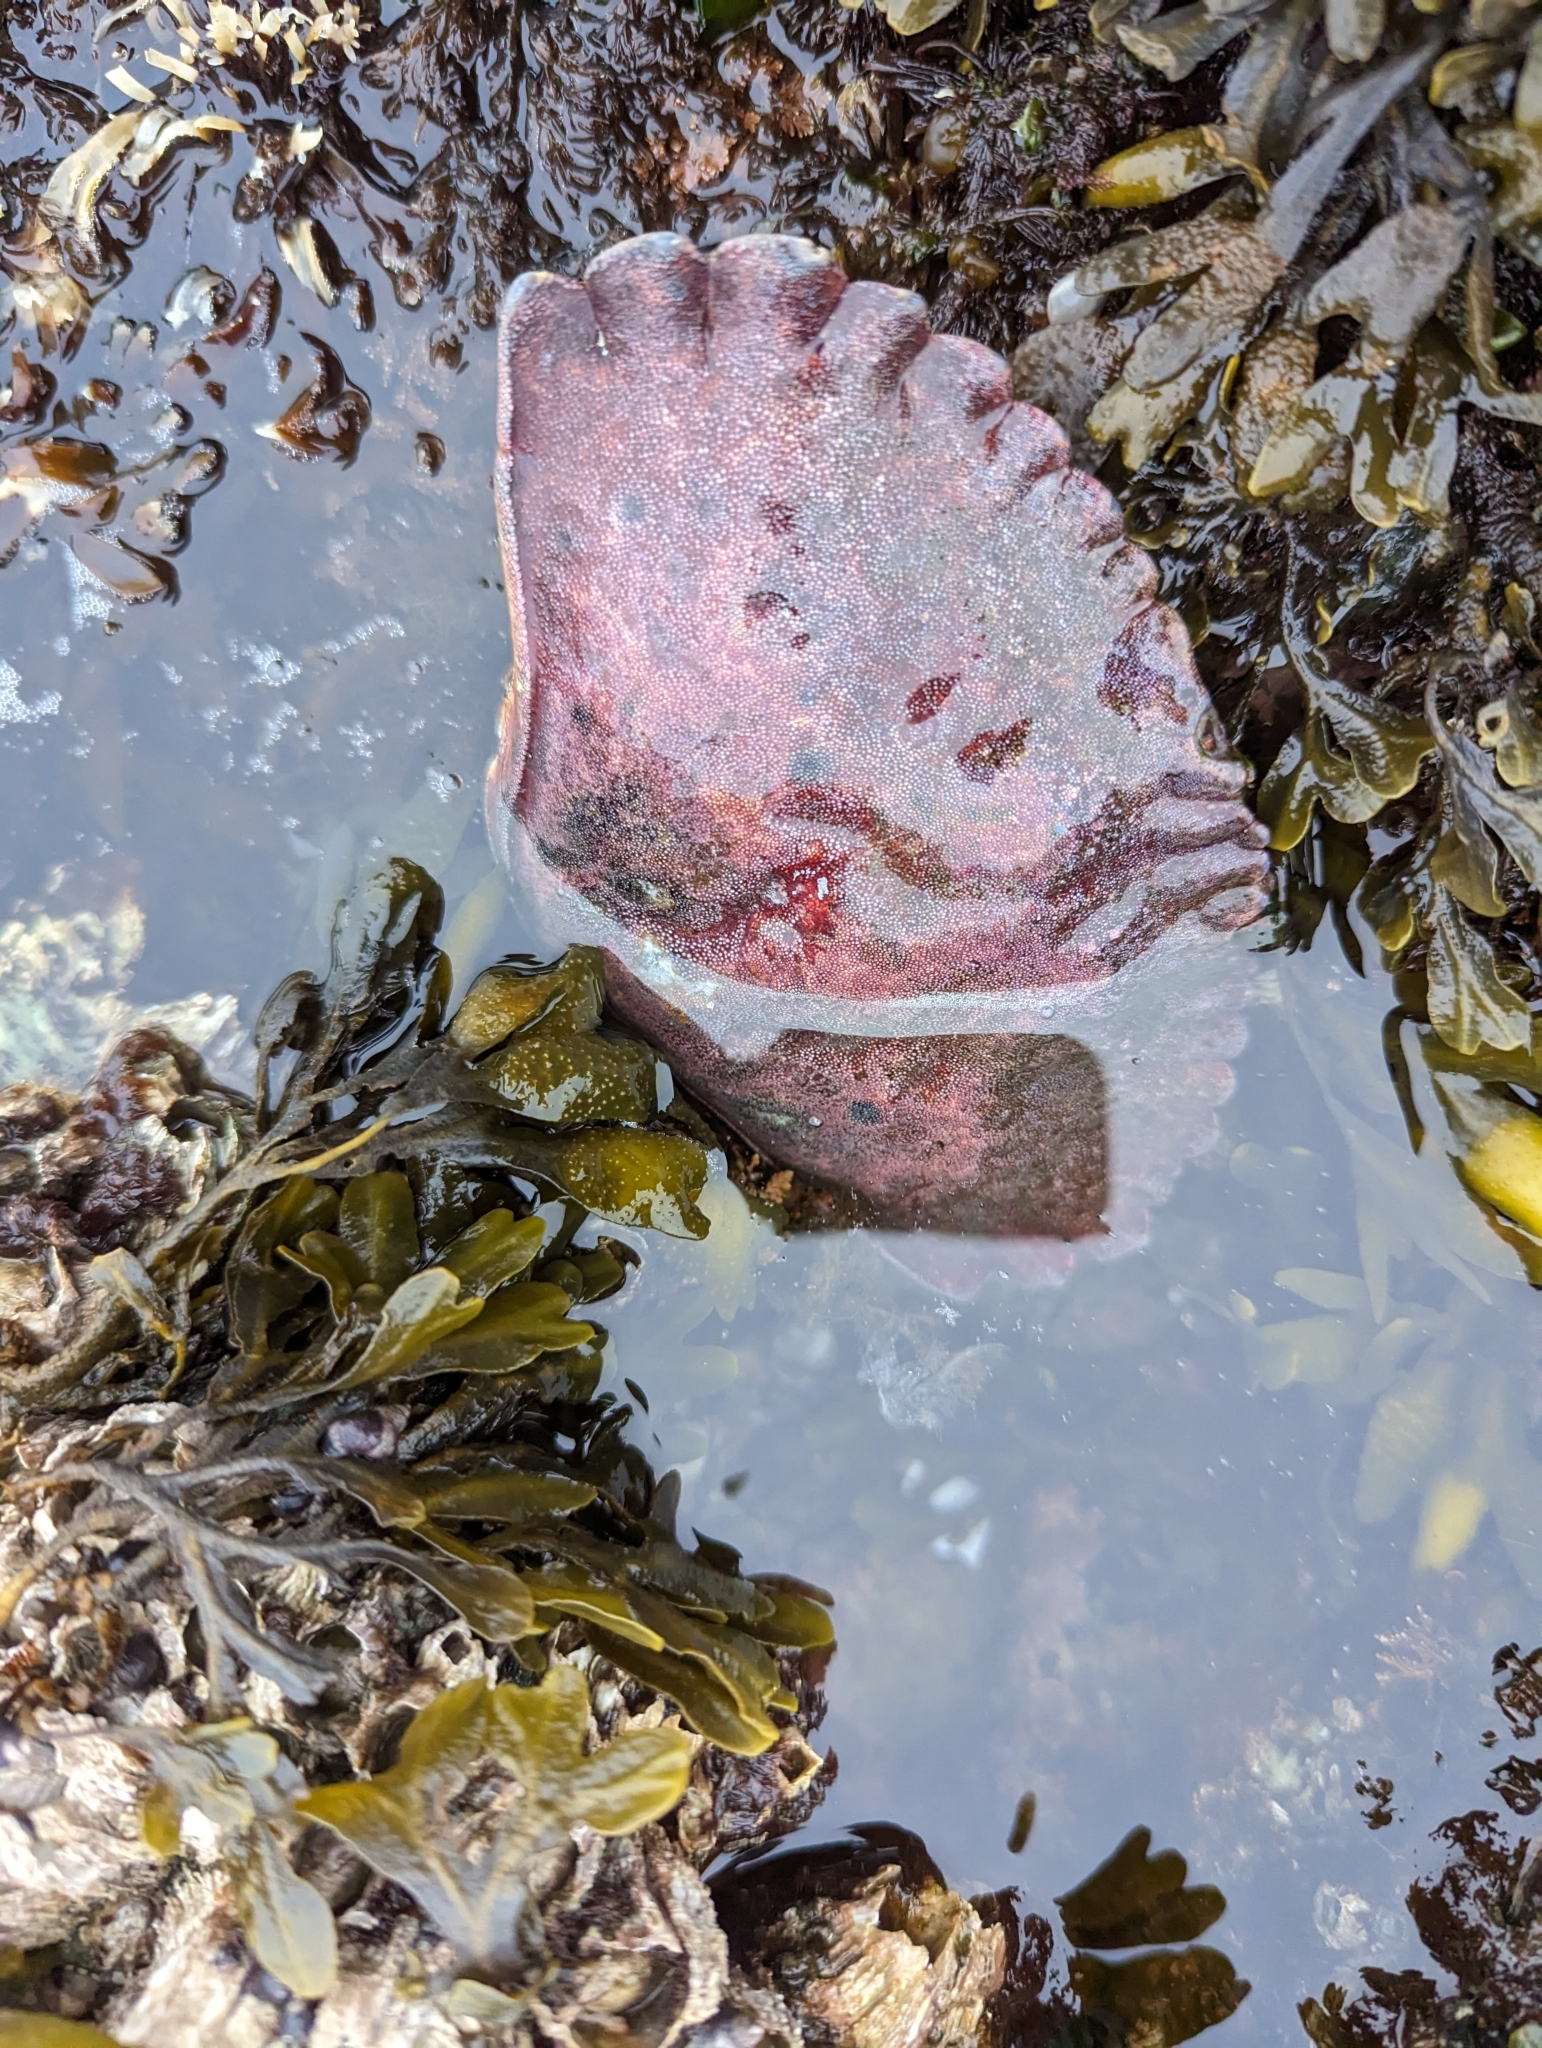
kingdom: Animalia
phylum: Arthropoda
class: Malacostraca
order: Decapoda
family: Cancridae
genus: Cancer
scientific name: Cancer productus
